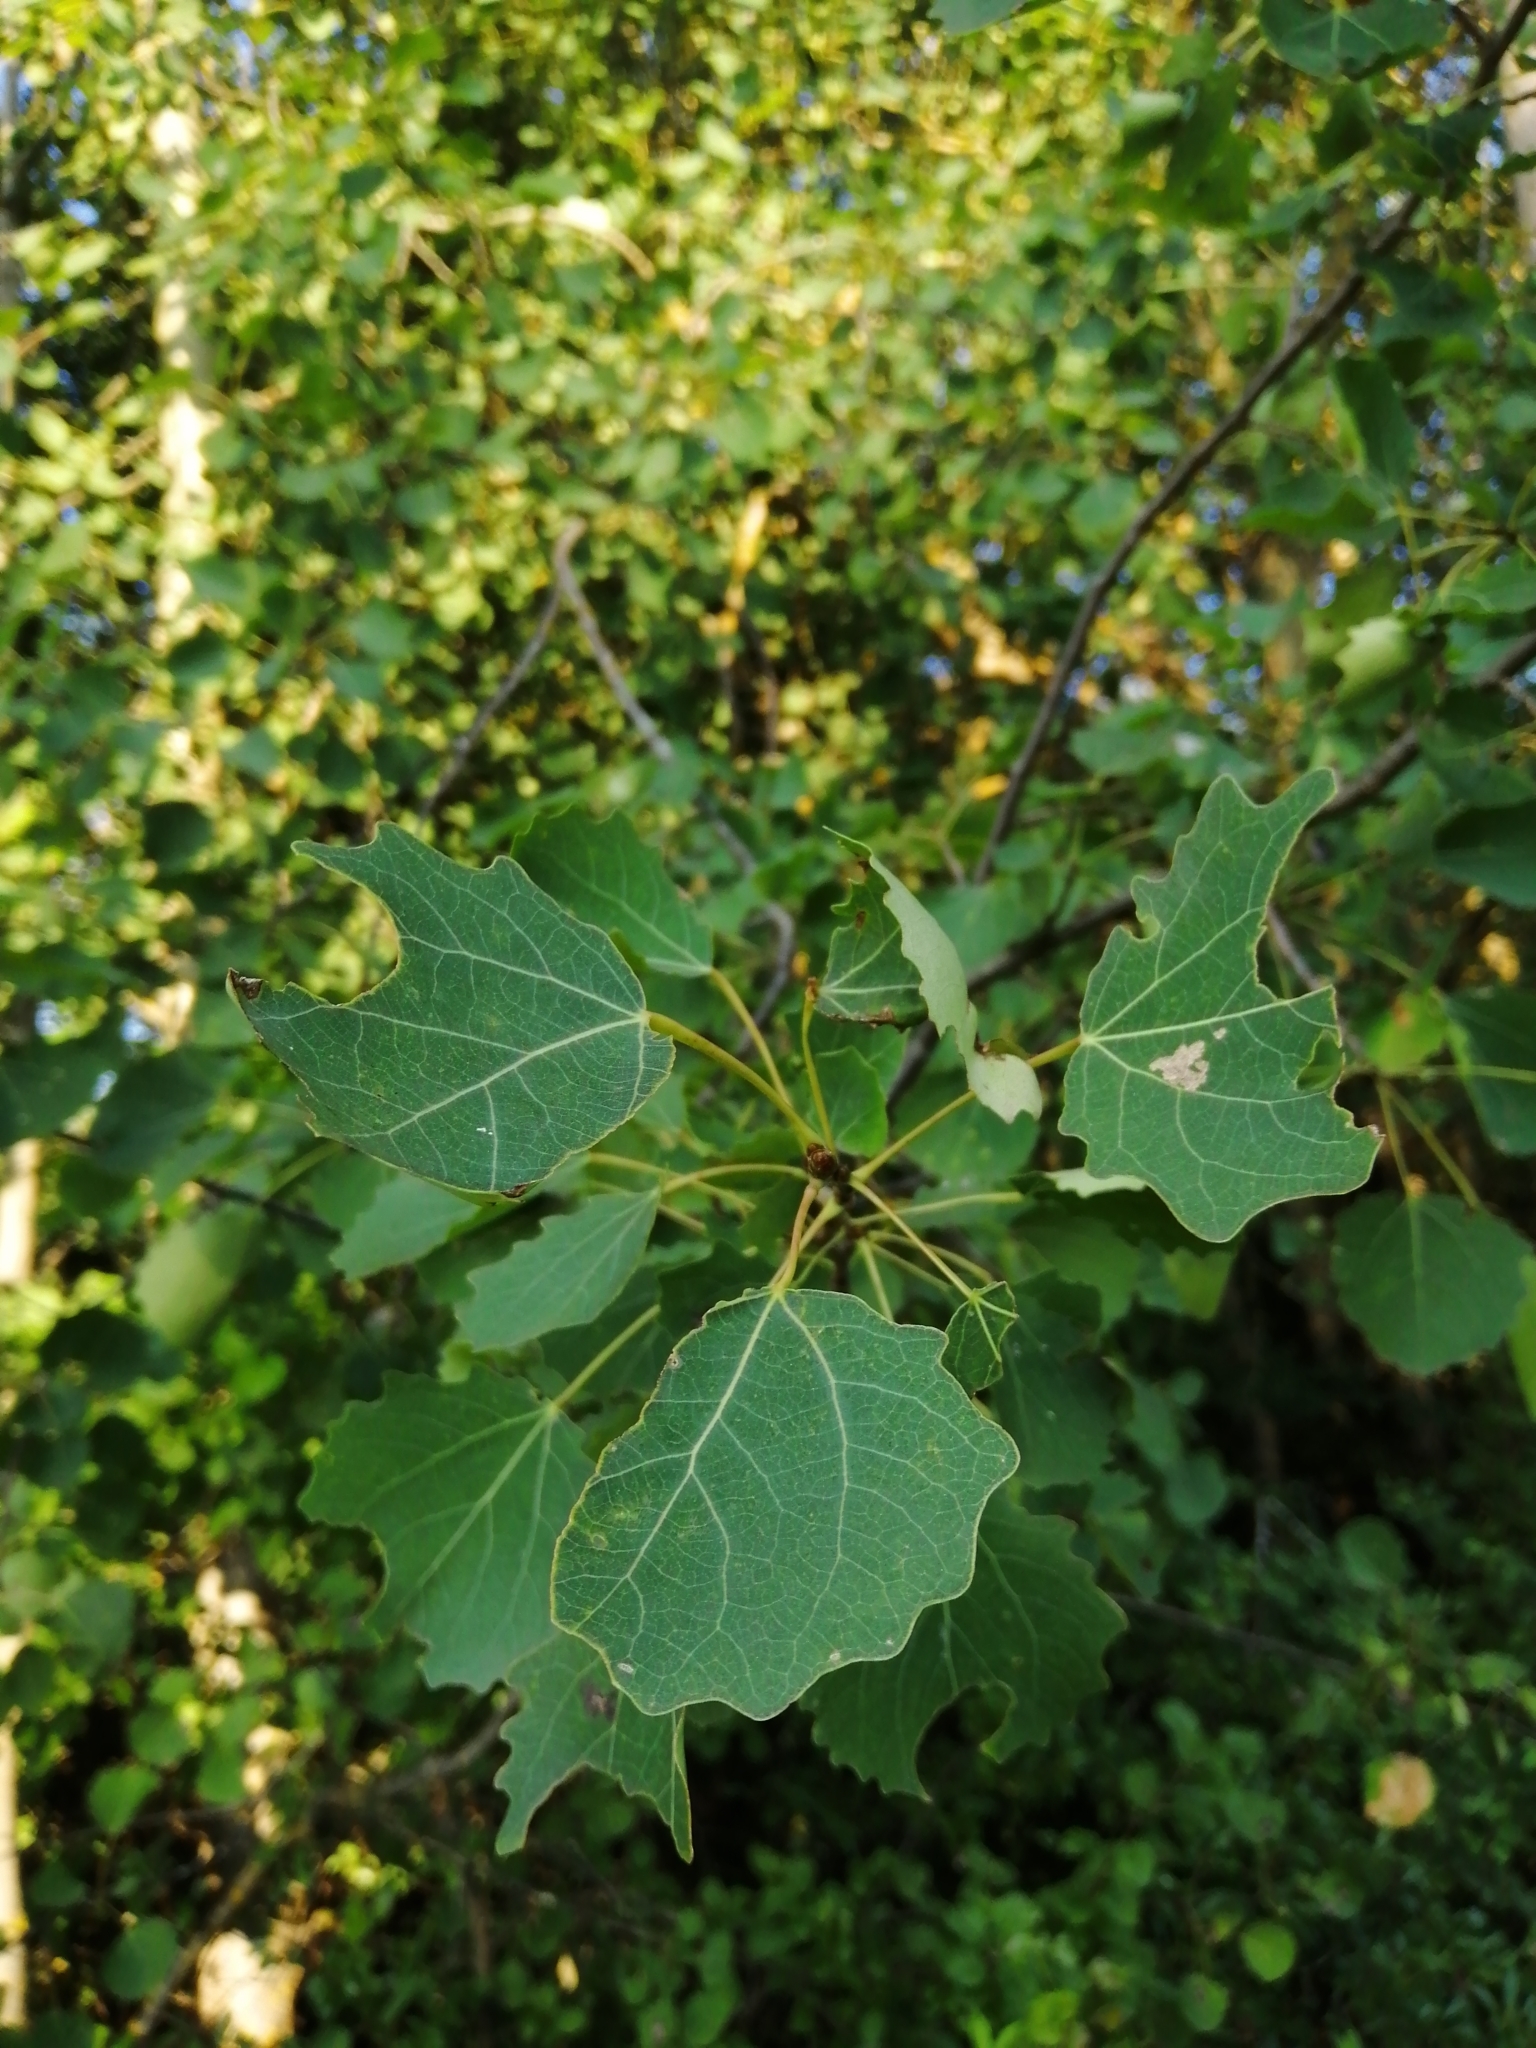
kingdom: Plantae
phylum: Tracheophyta
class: Magnoliopsida
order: Malpighiales
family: Salicaceae
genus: Populus
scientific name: Populus tremula
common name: European aspen
